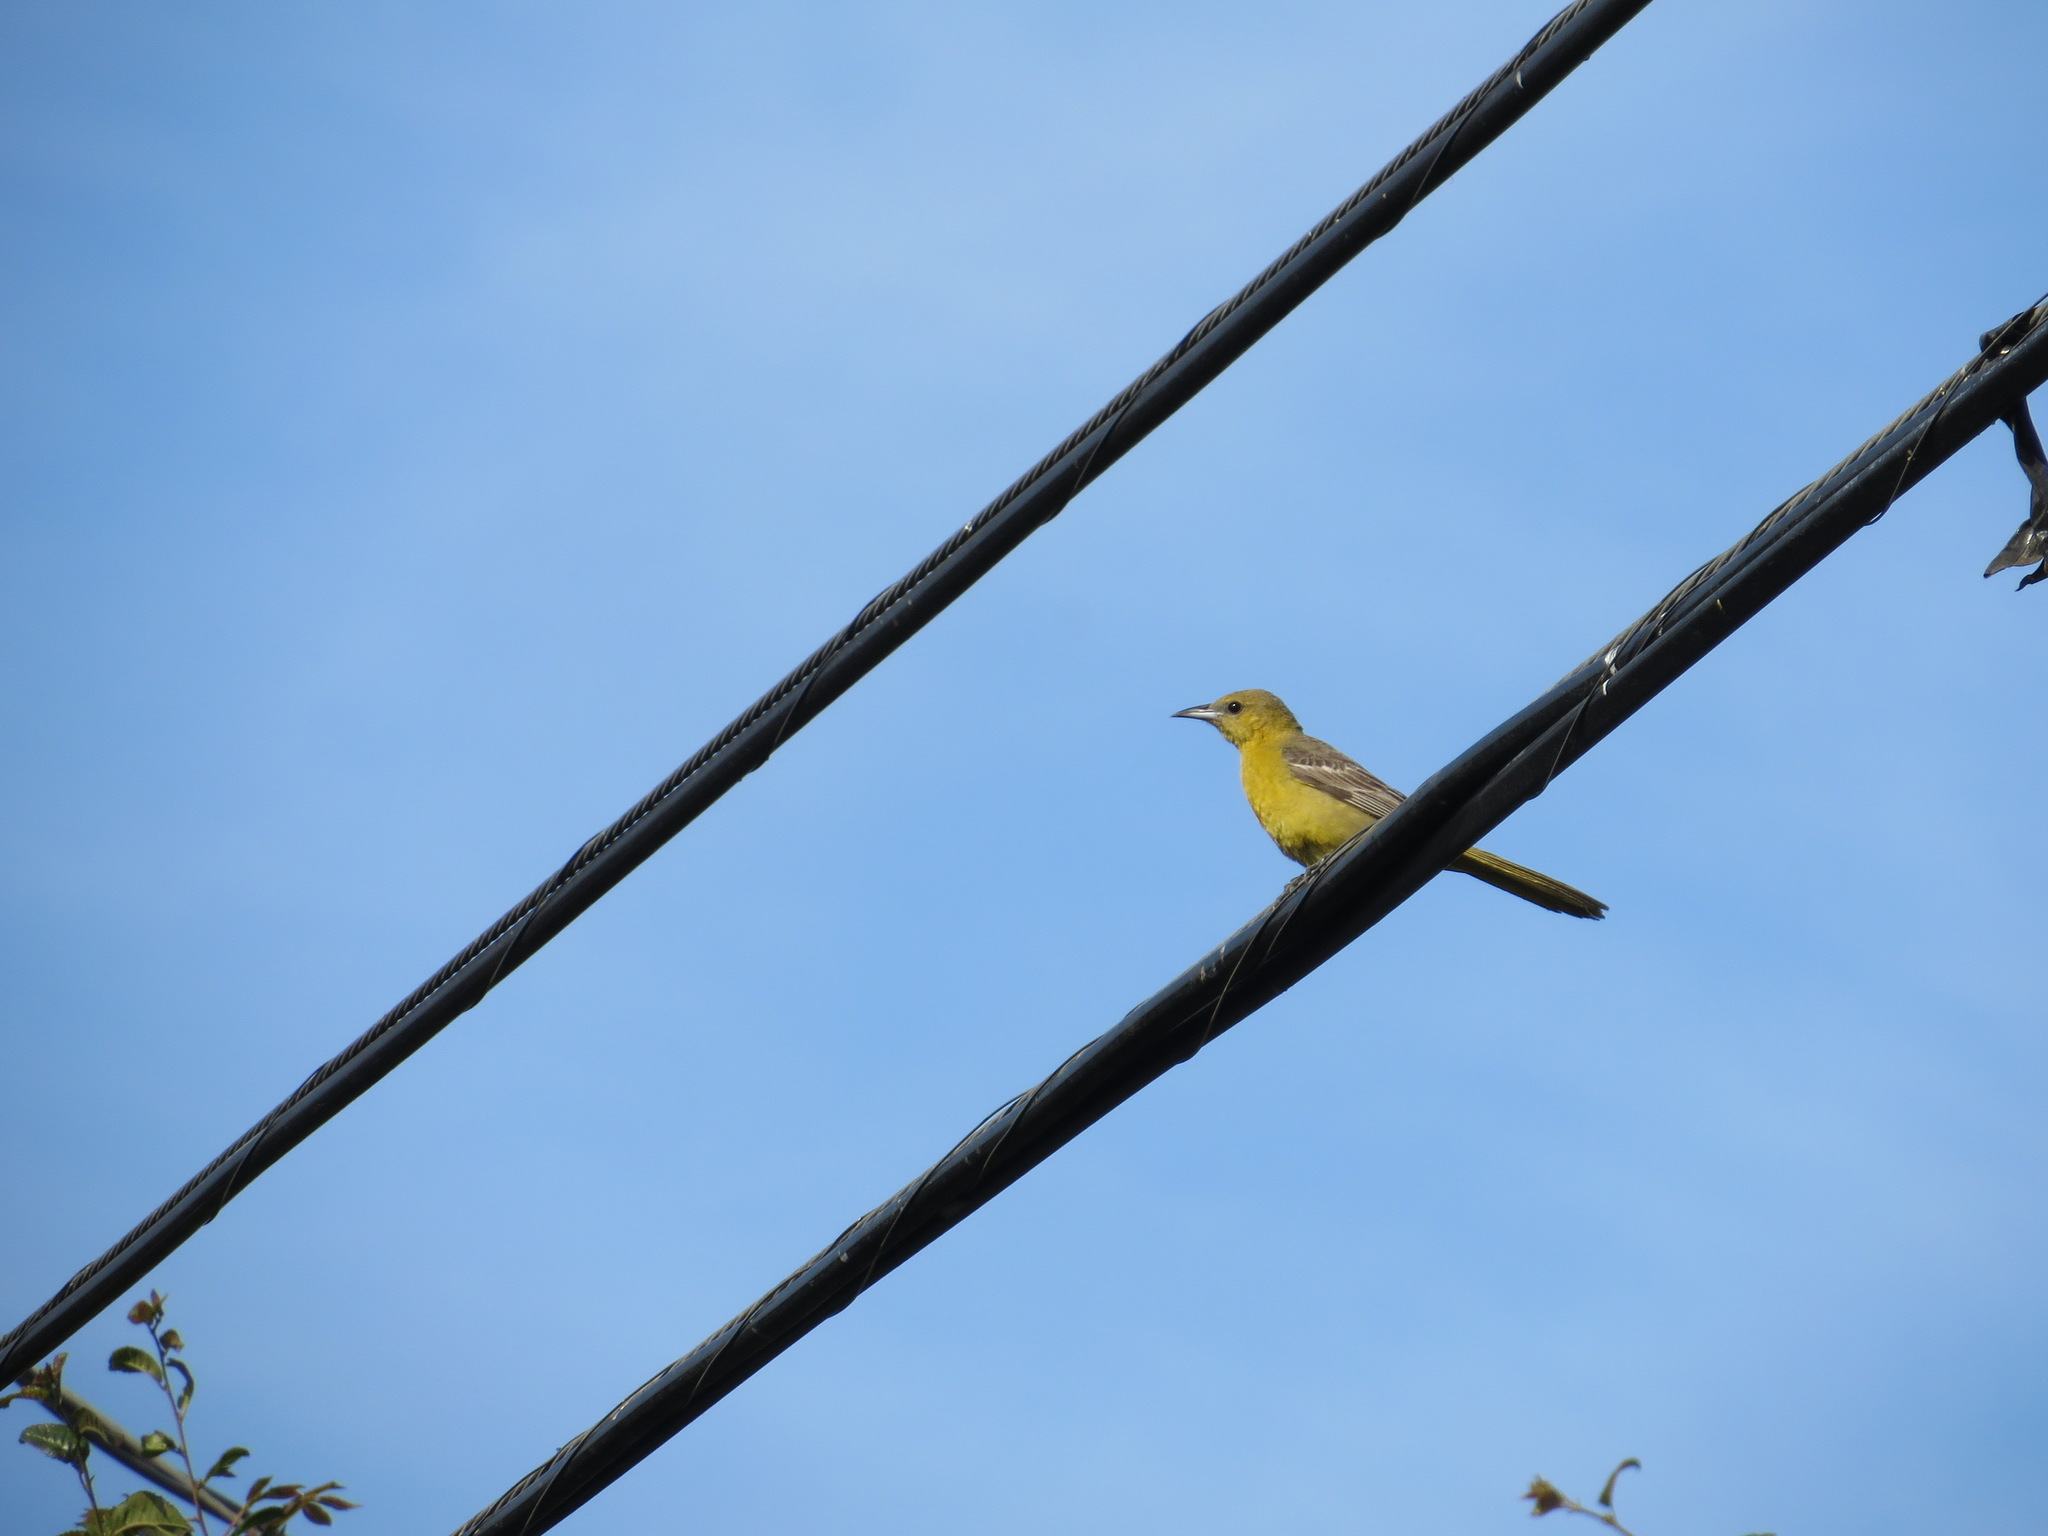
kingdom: Animalia
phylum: Chordata
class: Aves
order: Passeriformes
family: Icteridae
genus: Icterus
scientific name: Icterus cucullatus
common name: Hooded oriole
